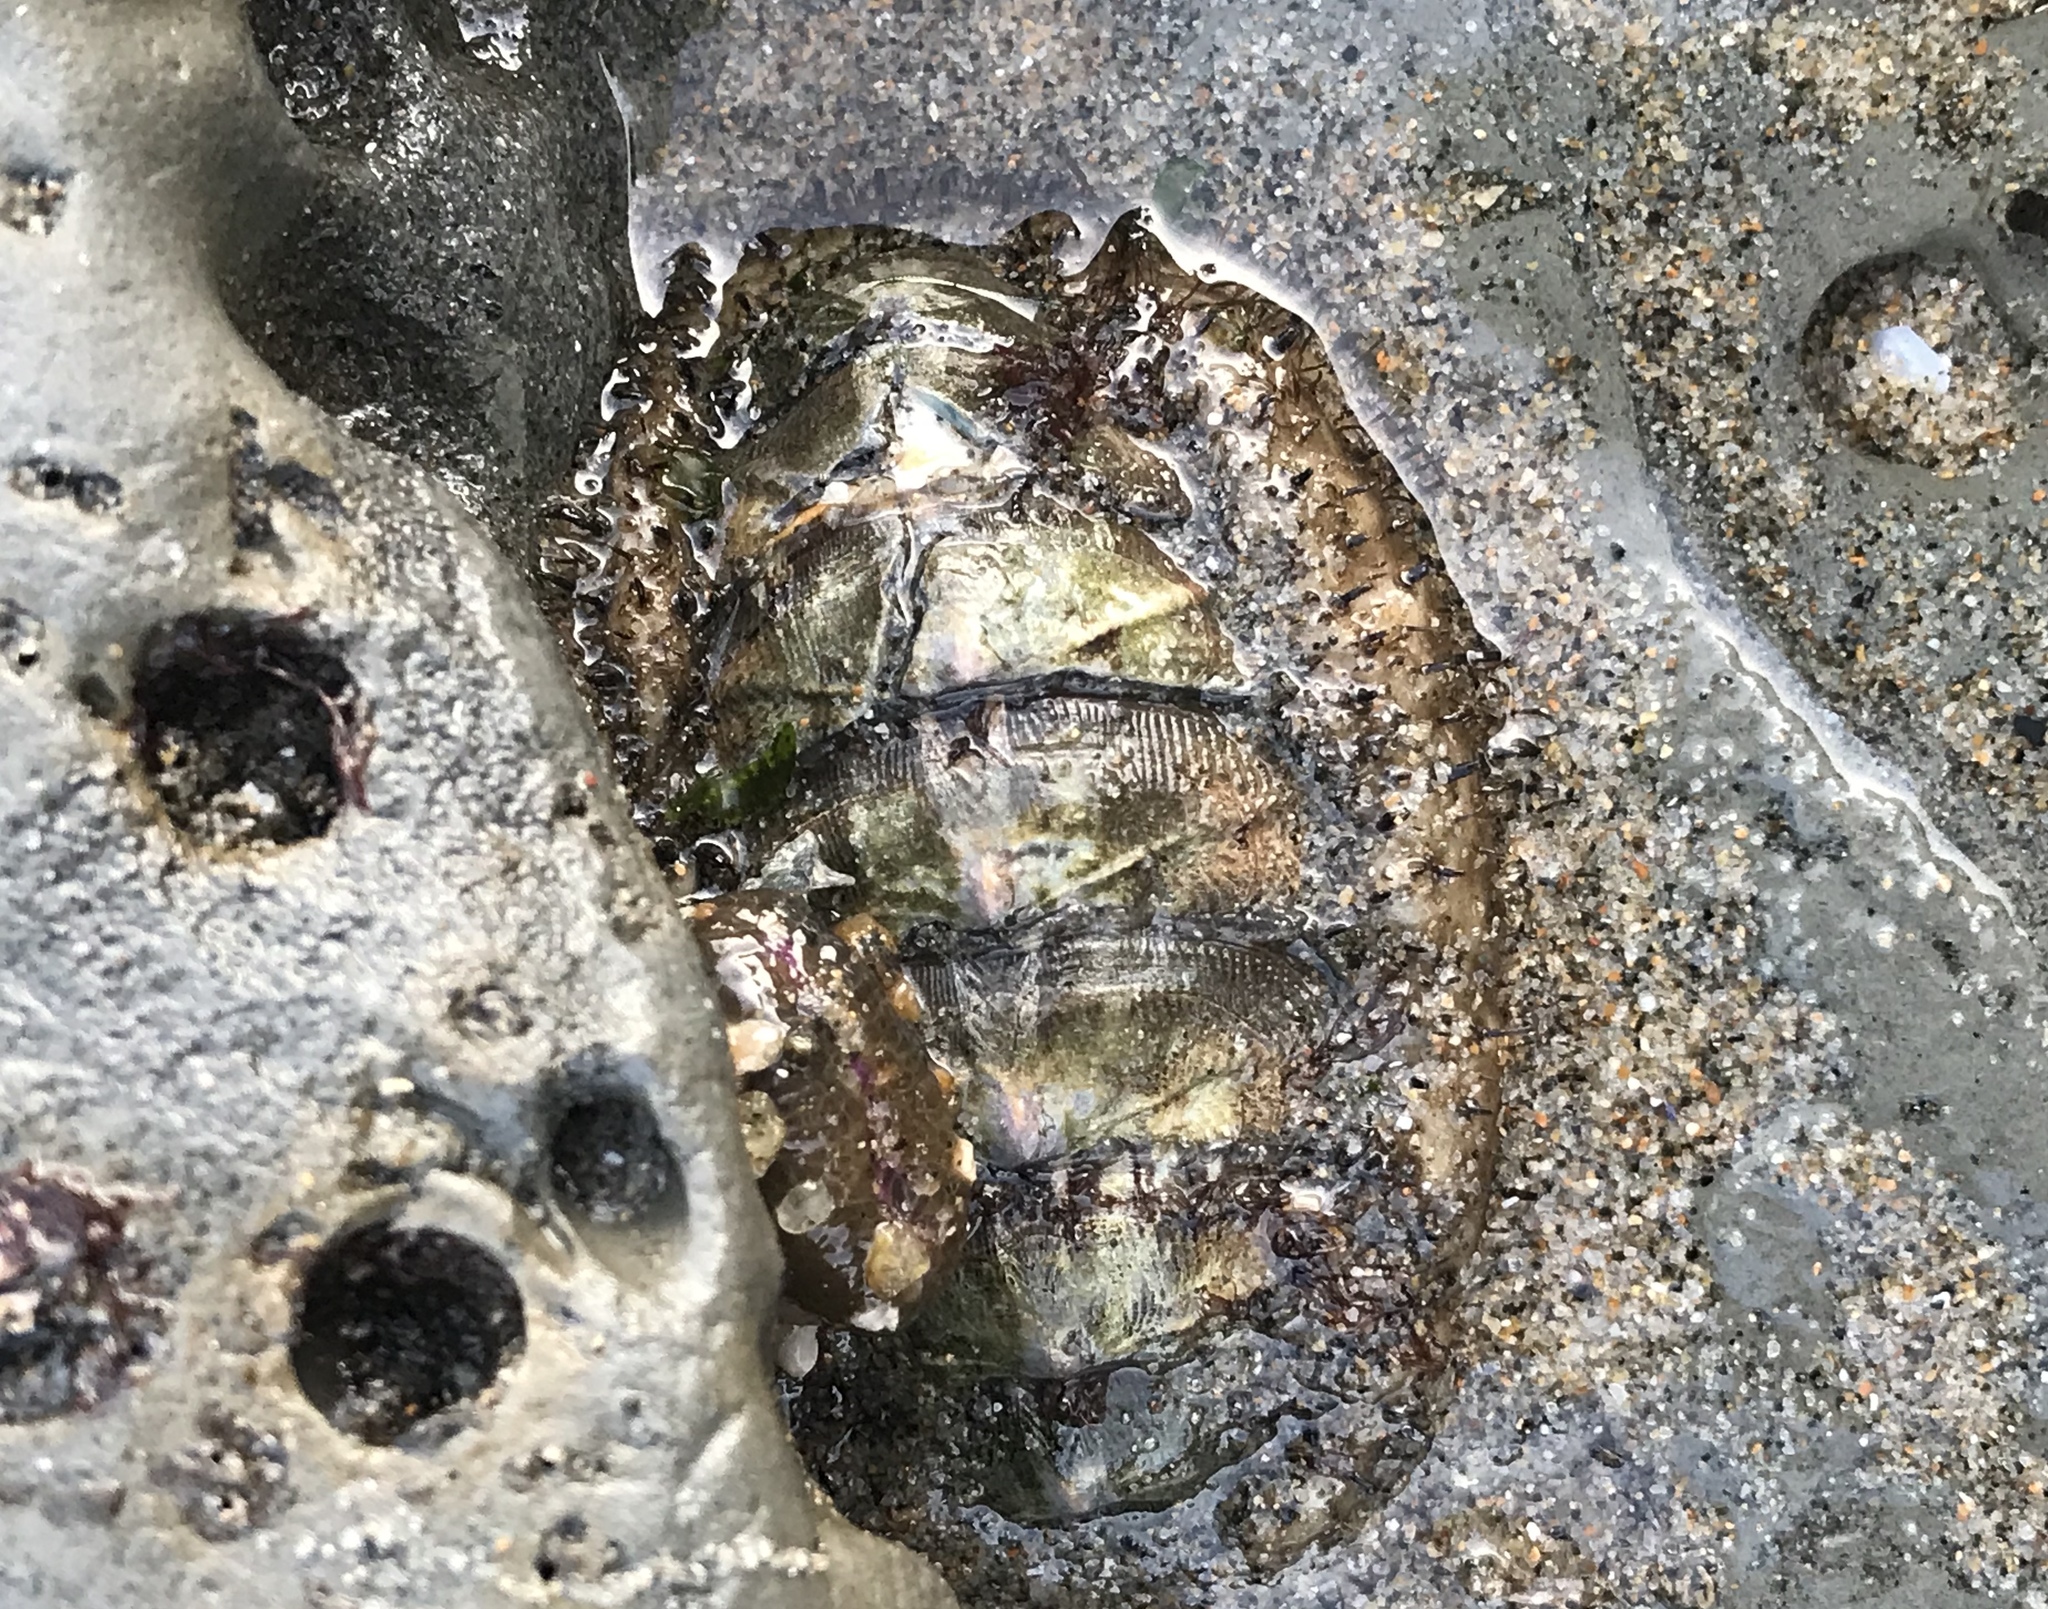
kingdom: Animalia
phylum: Mollusca
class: Polyplacophora
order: Chitonida
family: Mopaliidae
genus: Mopalia
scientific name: Mopalia muscosa
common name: Mossy chiton
